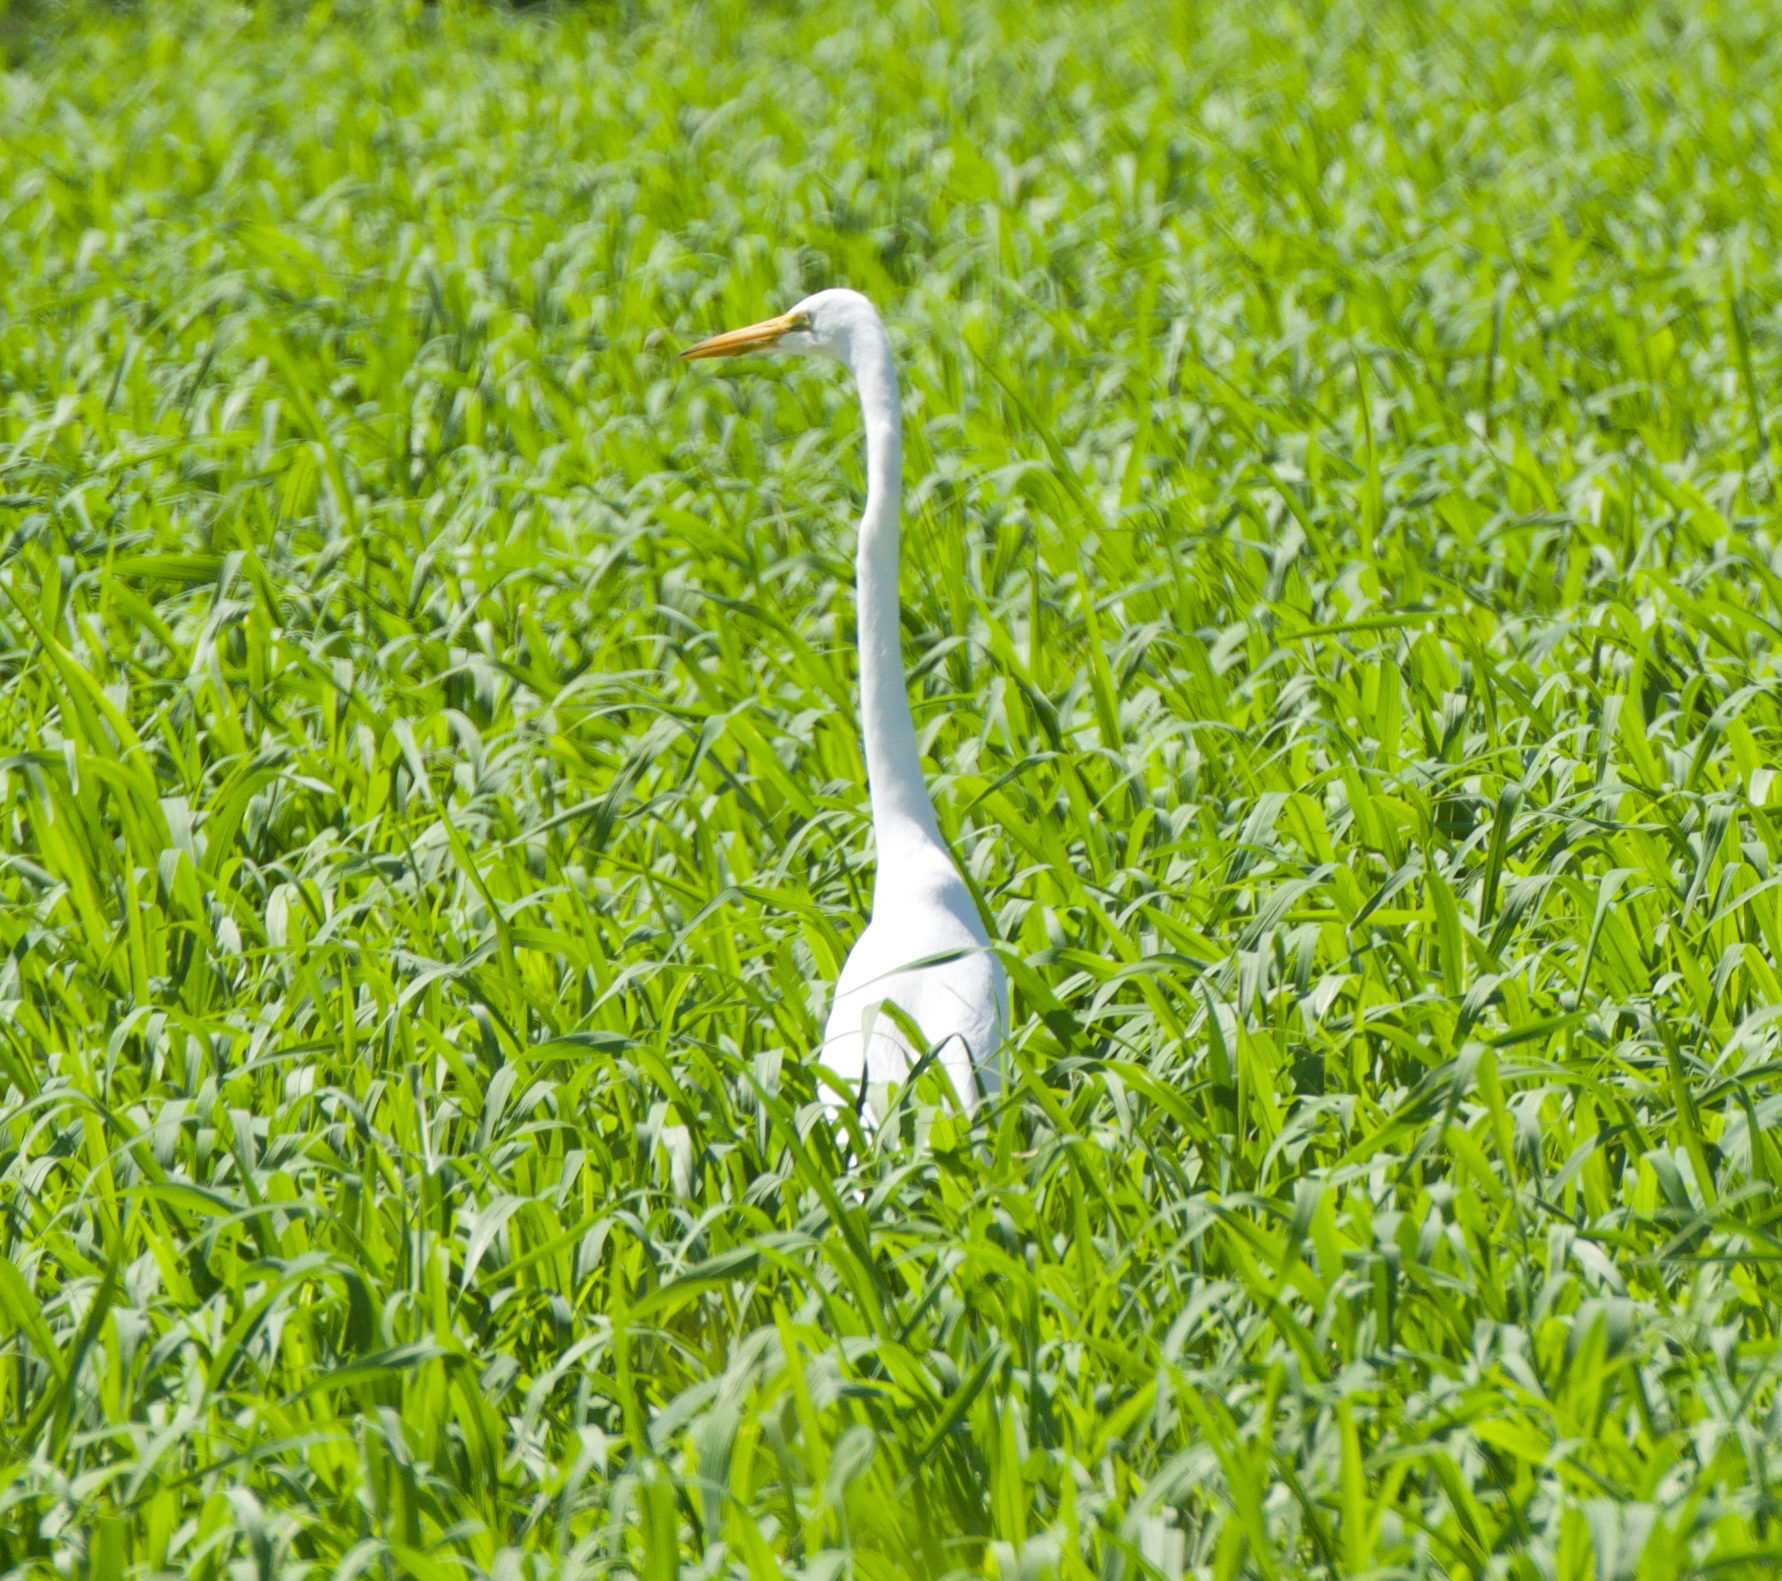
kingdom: Animalia
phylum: Chordata
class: Aves
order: Pelecaniformes
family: Ardeidae
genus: Ardea
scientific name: Ardea alba
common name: Great egret
